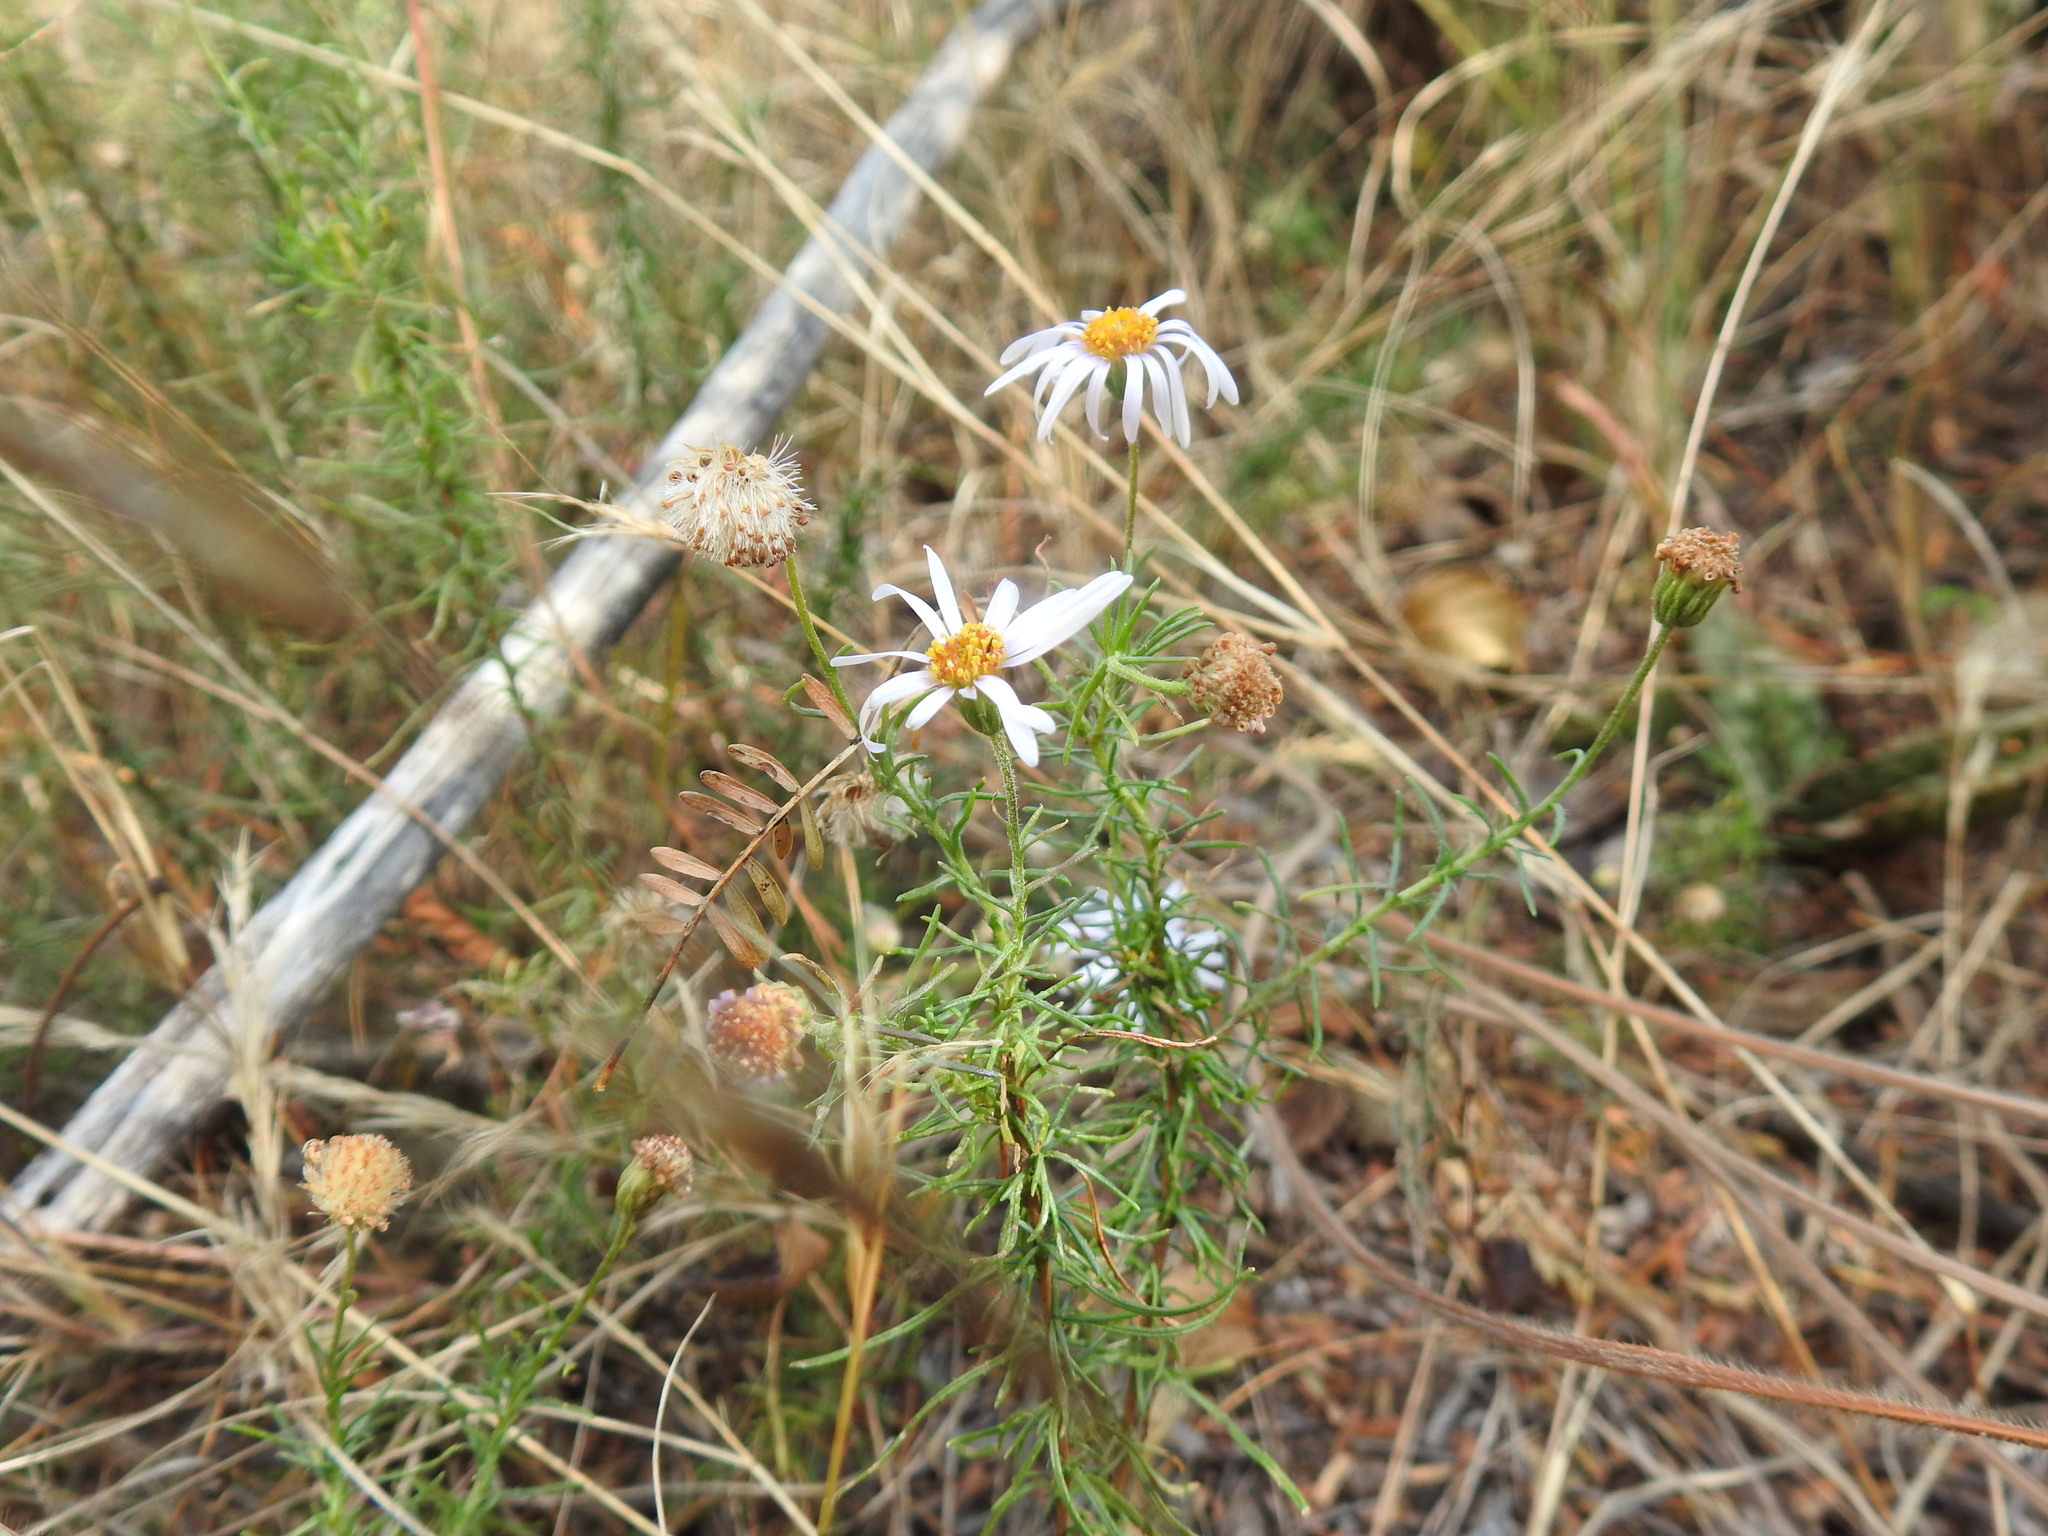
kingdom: Plantae
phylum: Tracheophyta
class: Magnoliopsida
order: Asterales
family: Asteraceae
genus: Felicia
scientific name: Felicia muricata
